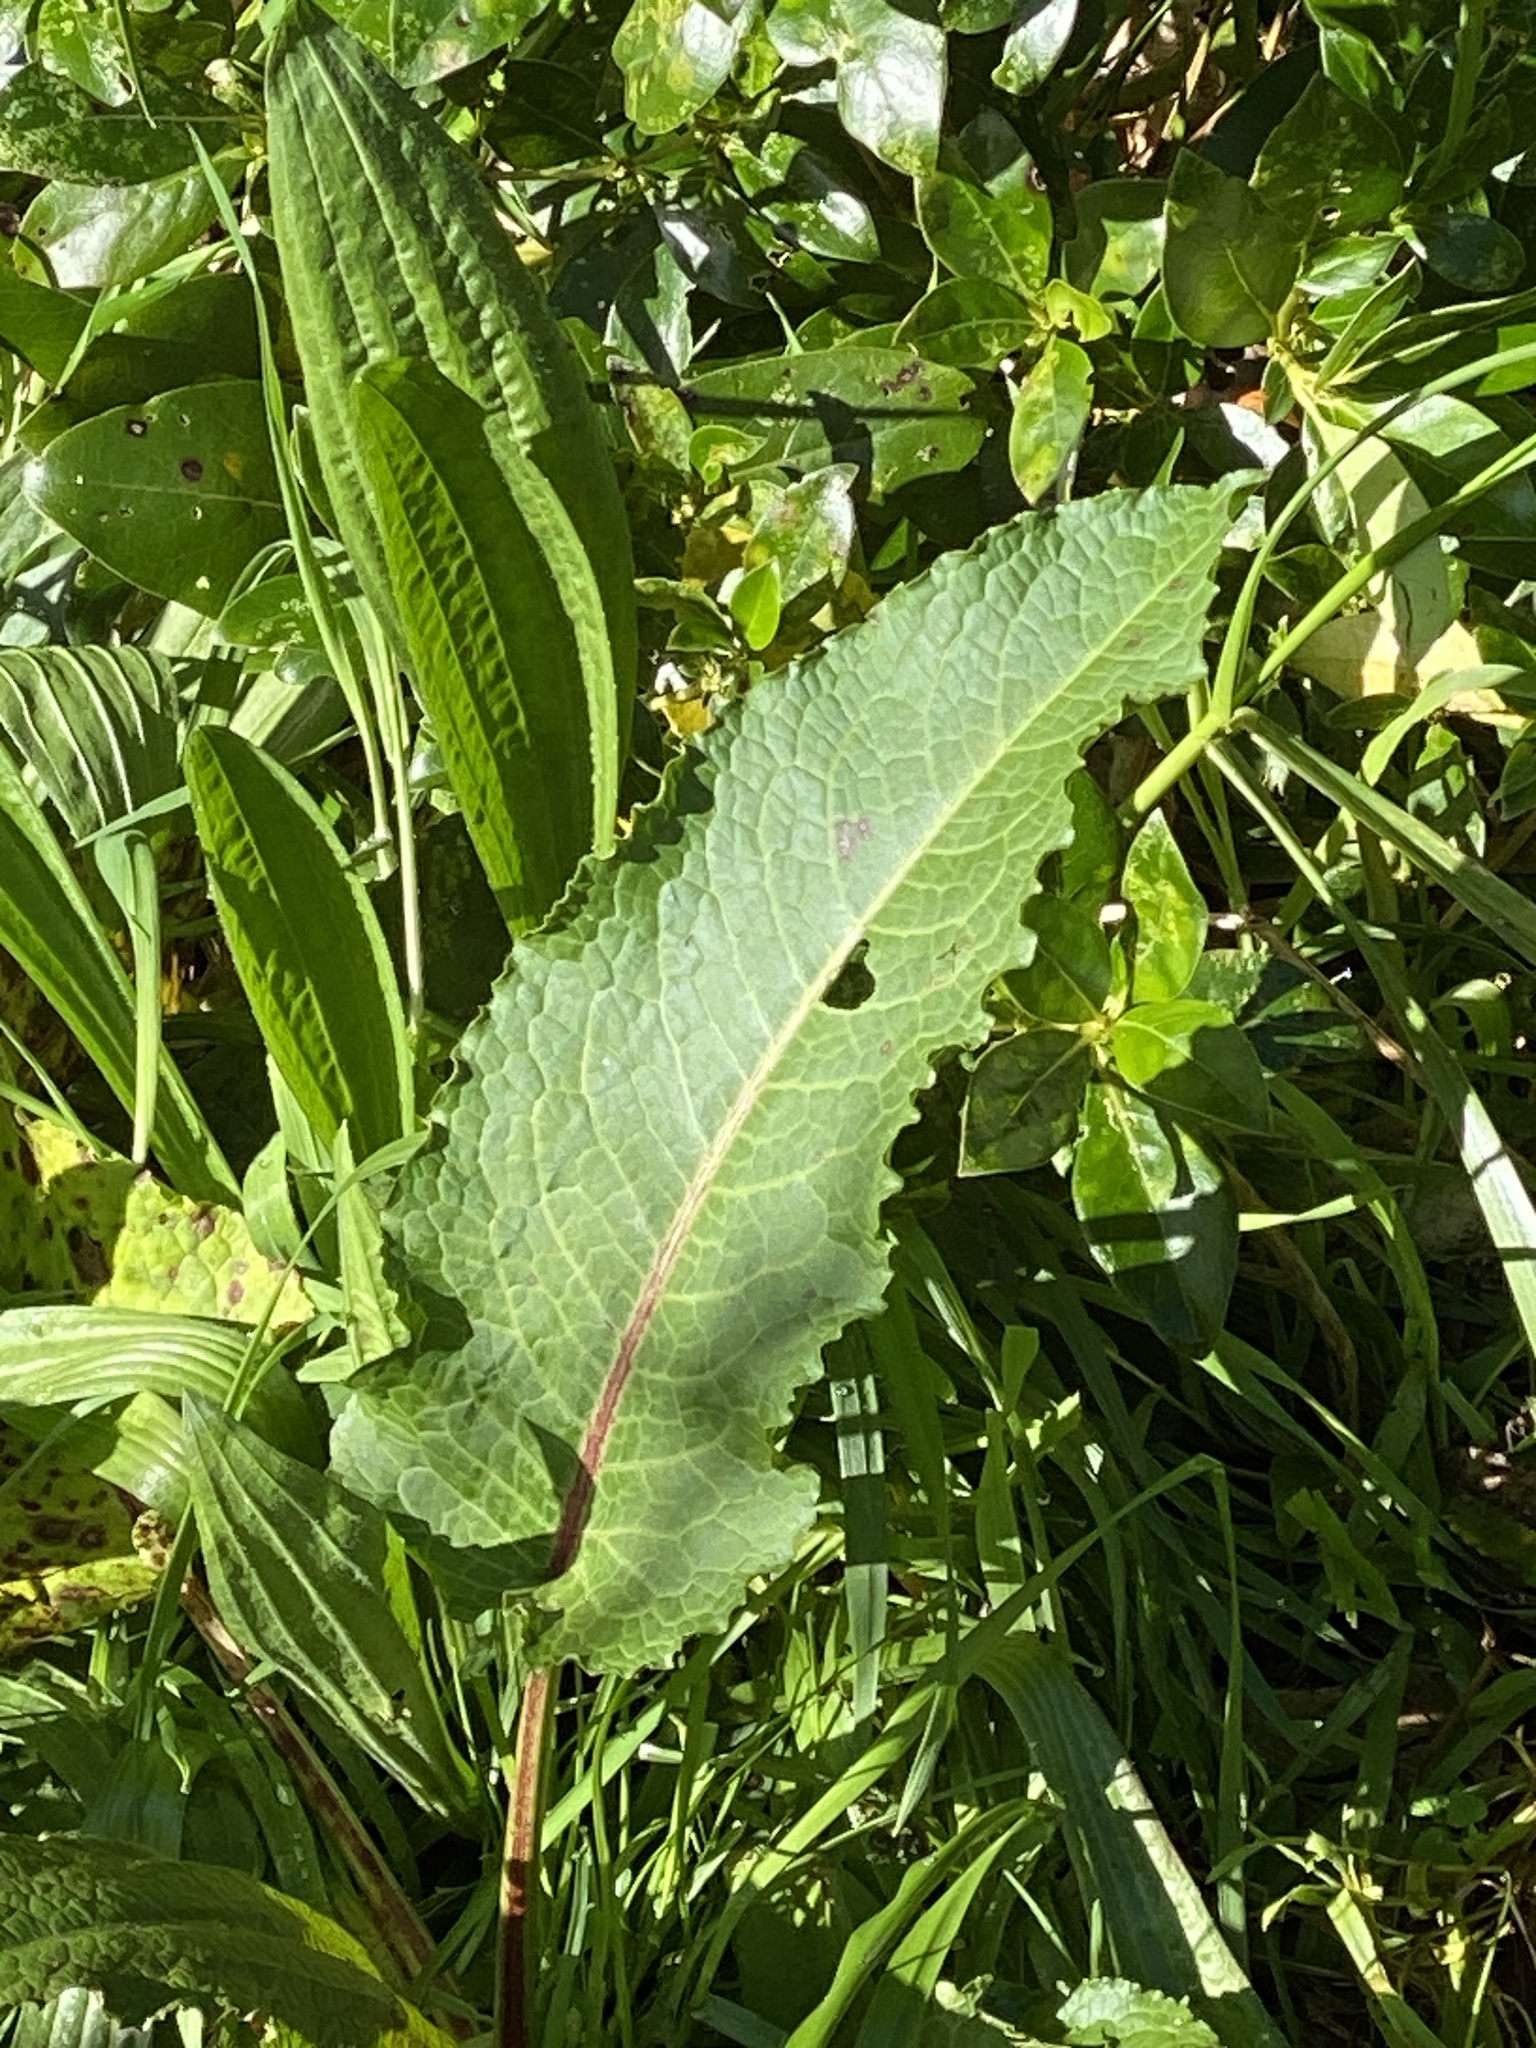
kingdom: Plantae
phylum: Tracheophyta
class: Magnoliopsida
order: Lamiales
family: Plantaginaceae
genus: Plantago
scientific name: Plantago lanceolata
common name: Ribwort plantain
